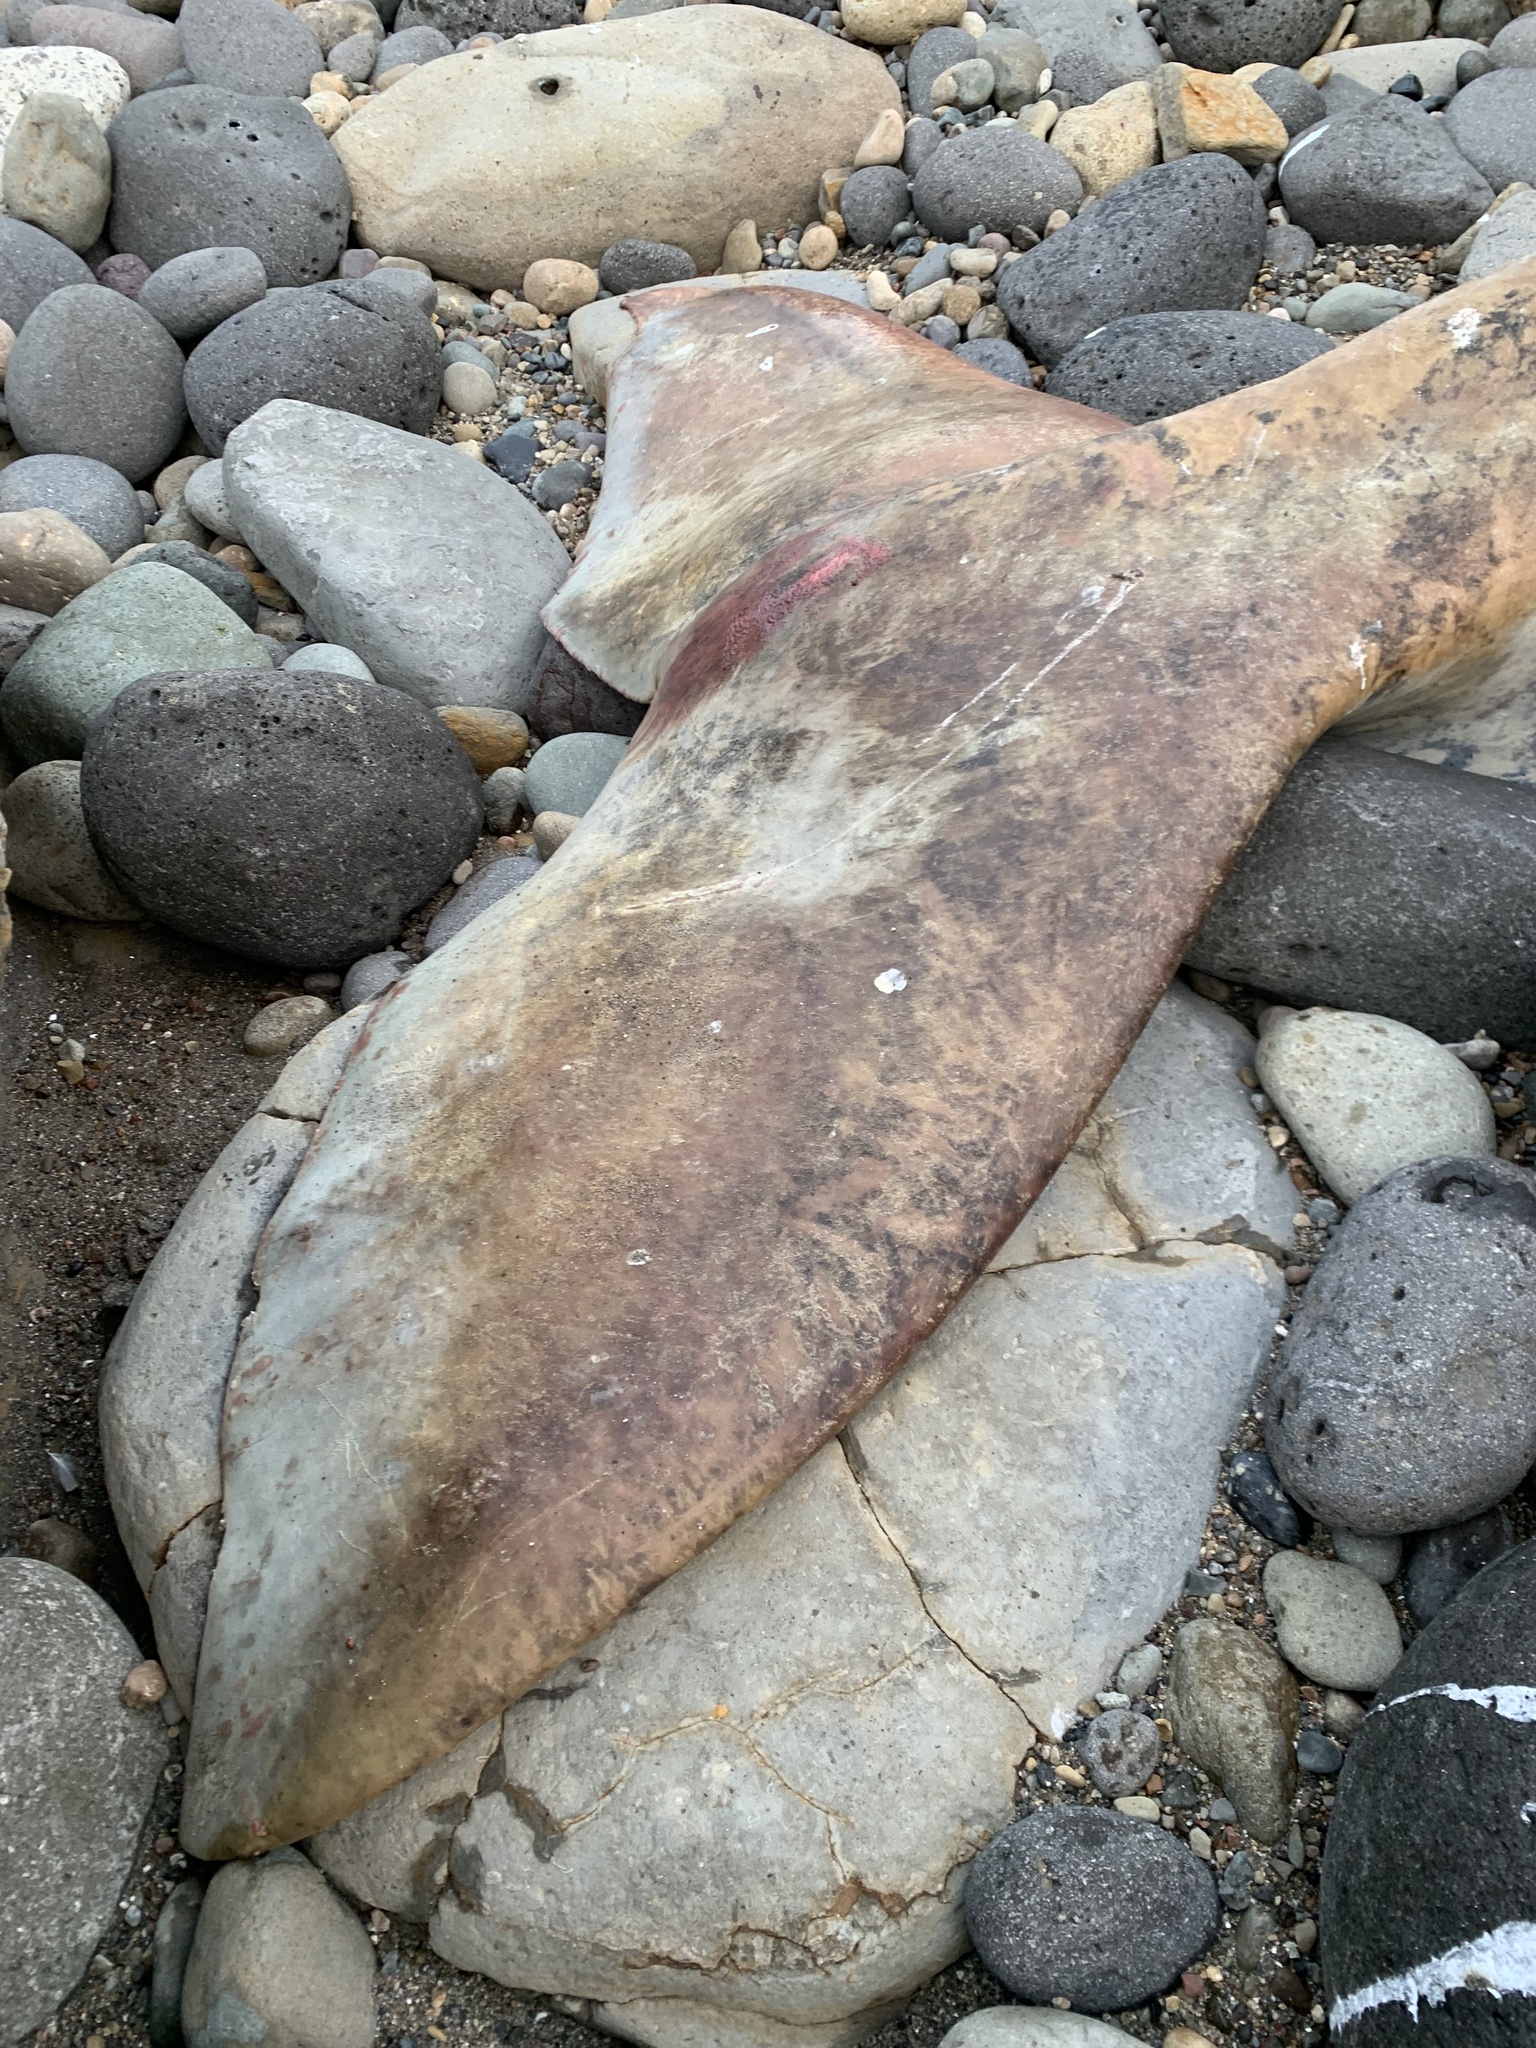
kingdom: Animalia
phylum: Chordata
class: Mammalia
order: Cetacea
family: Eschrichtiidae
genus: Eschrichtius
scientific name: Eschrichtius robustus
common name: Gray whale
